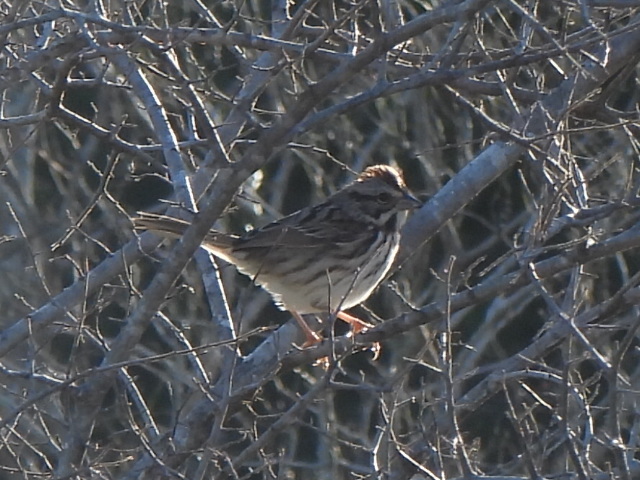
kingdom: Animalia
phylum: Chordata
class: Aves
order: Passeriformes
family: Passerellidae
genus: Melospiza
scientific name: Melospiza melodia
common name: Song sparrow
